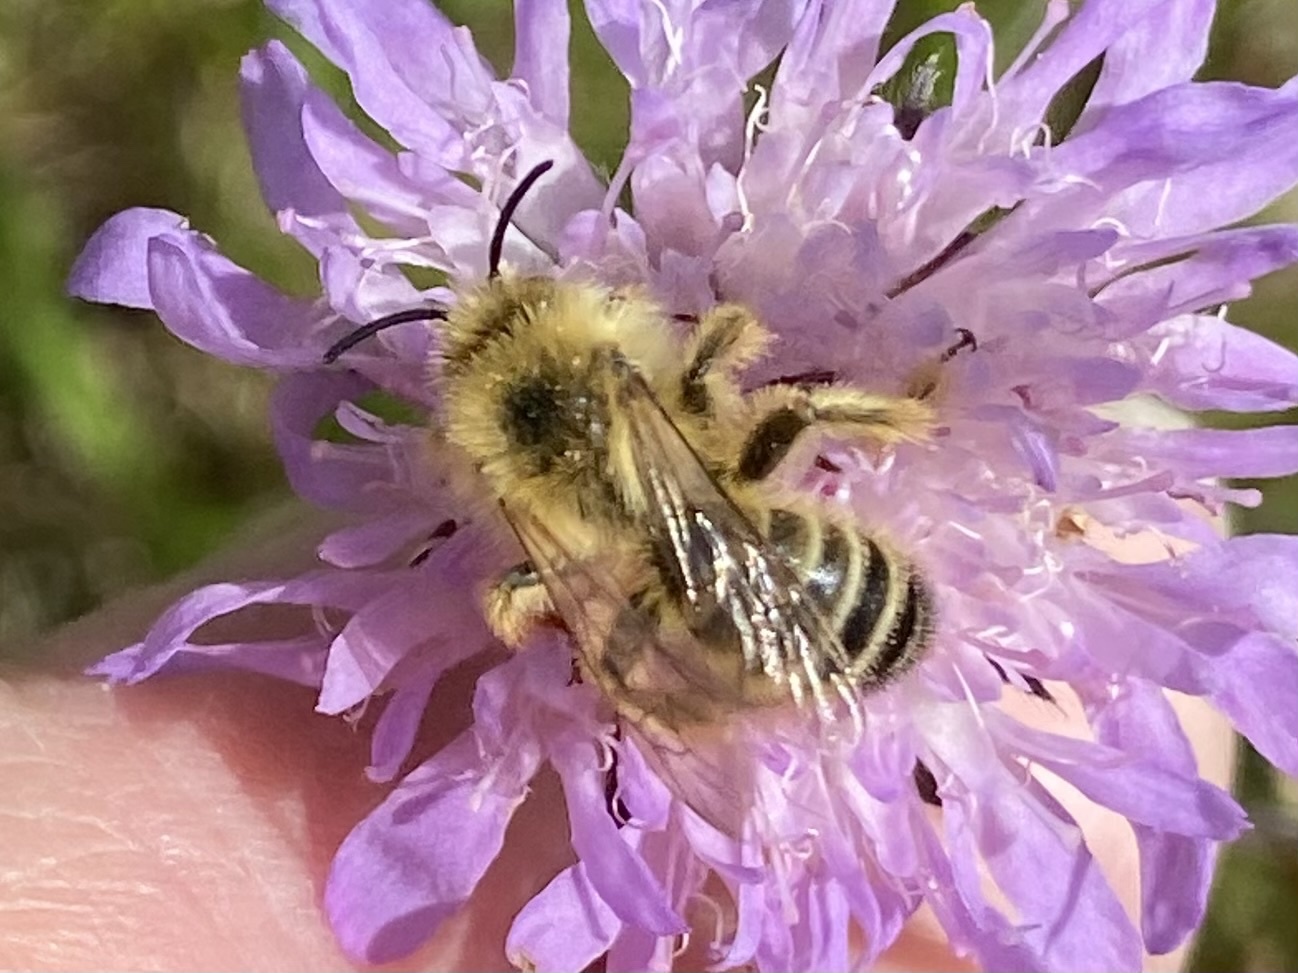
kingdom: Animalia
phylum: Arthropoda
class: Insecta
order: Hymenoptera
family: Melittidae
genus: Dasypoda
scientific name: Dasypoda hirtipes
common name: Pantaloon bee
